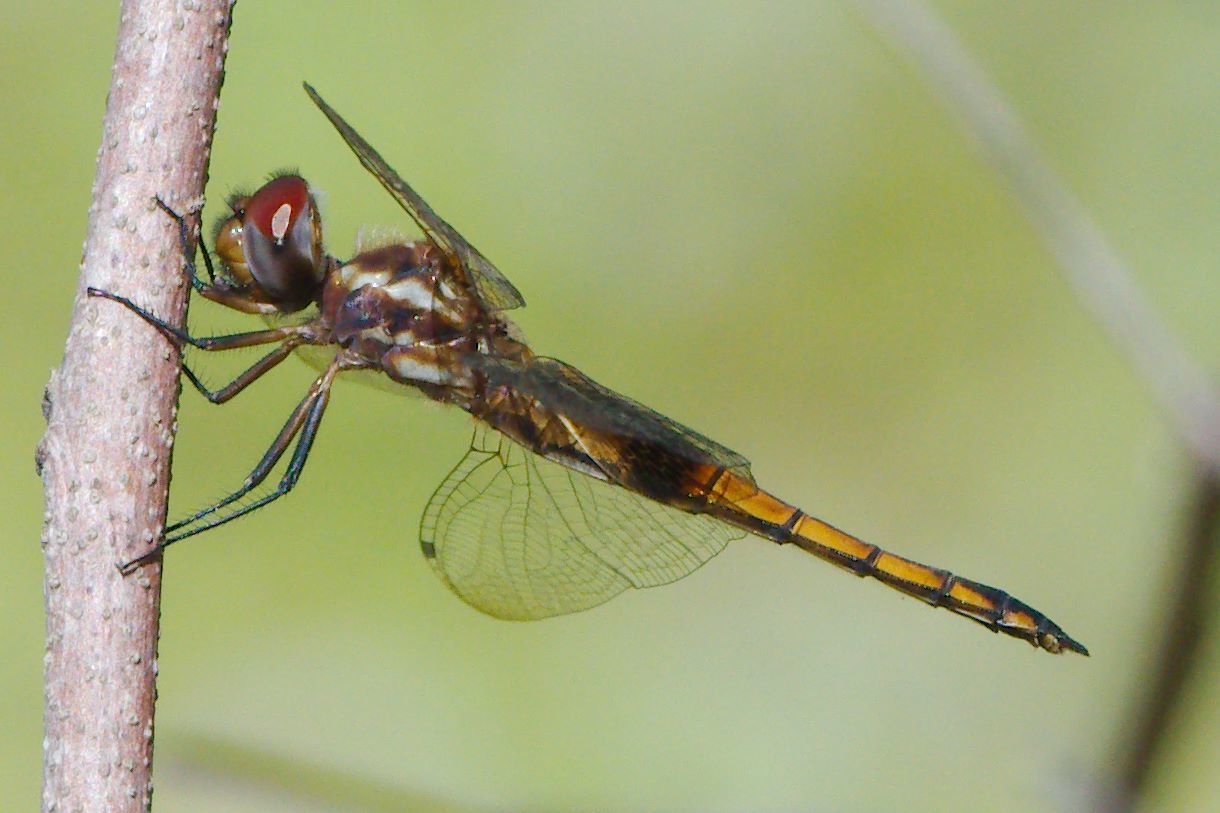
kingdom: Animalia
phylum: Arthropoda
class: Insecta
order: Odonata
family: Libellulidae
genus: Miathyria
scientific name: Miathyria marcella
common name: Hyacinth glider
